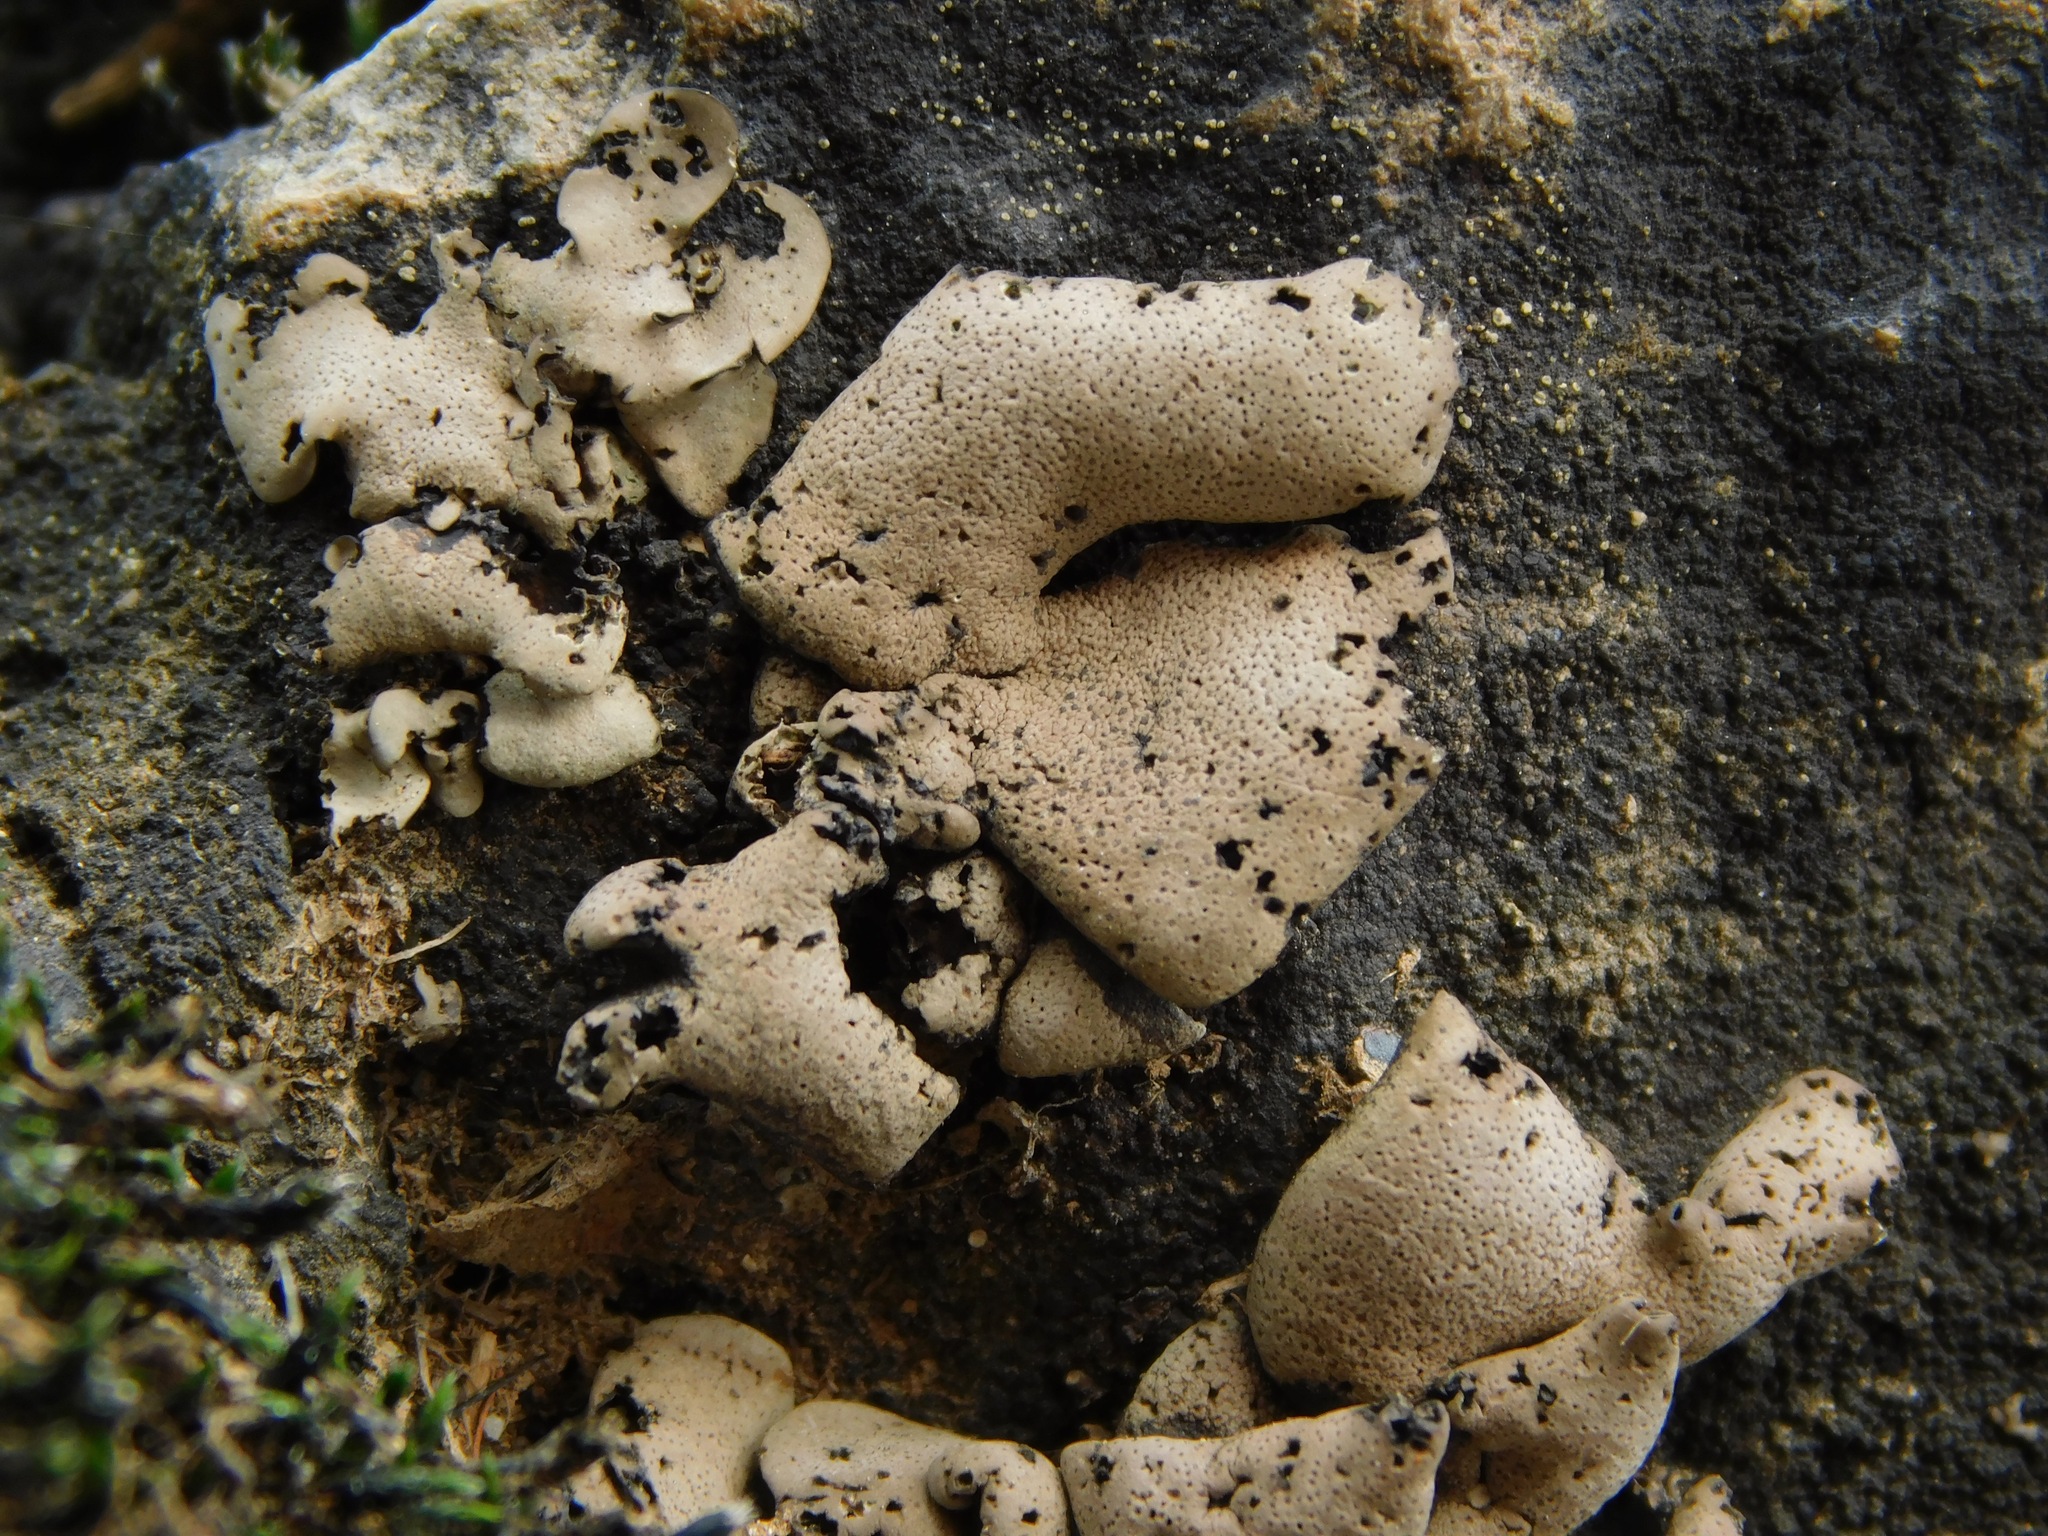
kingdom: Fungi
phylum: Ascomycota
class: Eurotiomycetes
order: Verrucariales
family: Verrucariaceae
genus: Dermatocarpon
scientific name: Dermatocarpon arenosaxi
